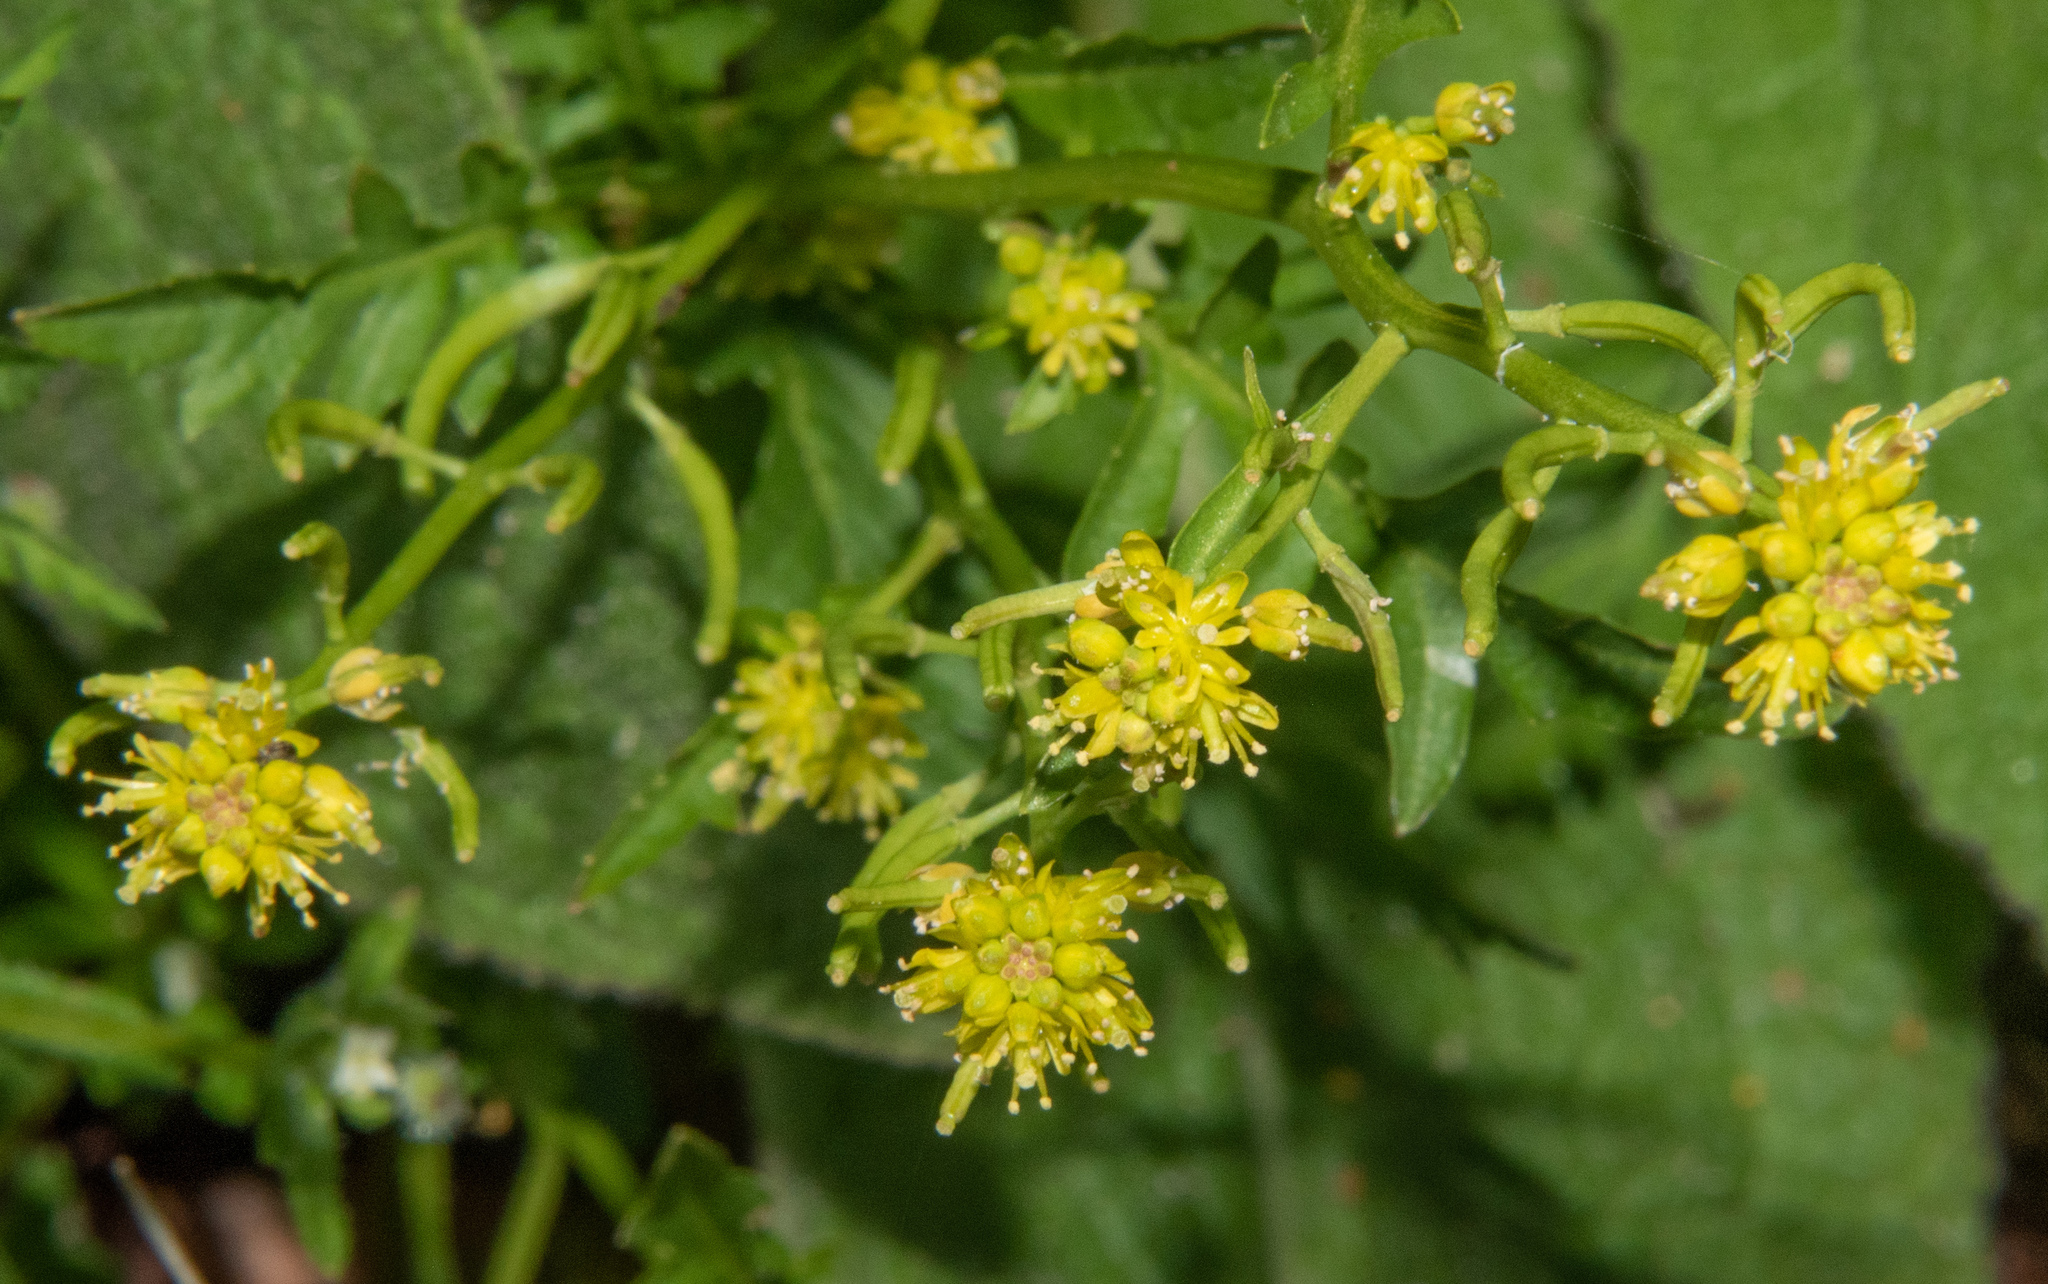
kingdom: Plantae
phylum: Tracheophyta
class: Magnoliopsida
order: Brassicales
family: Brassicaceae
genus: Rorippa
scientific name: Rorippa palustris
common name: Marsh yellow-cress
